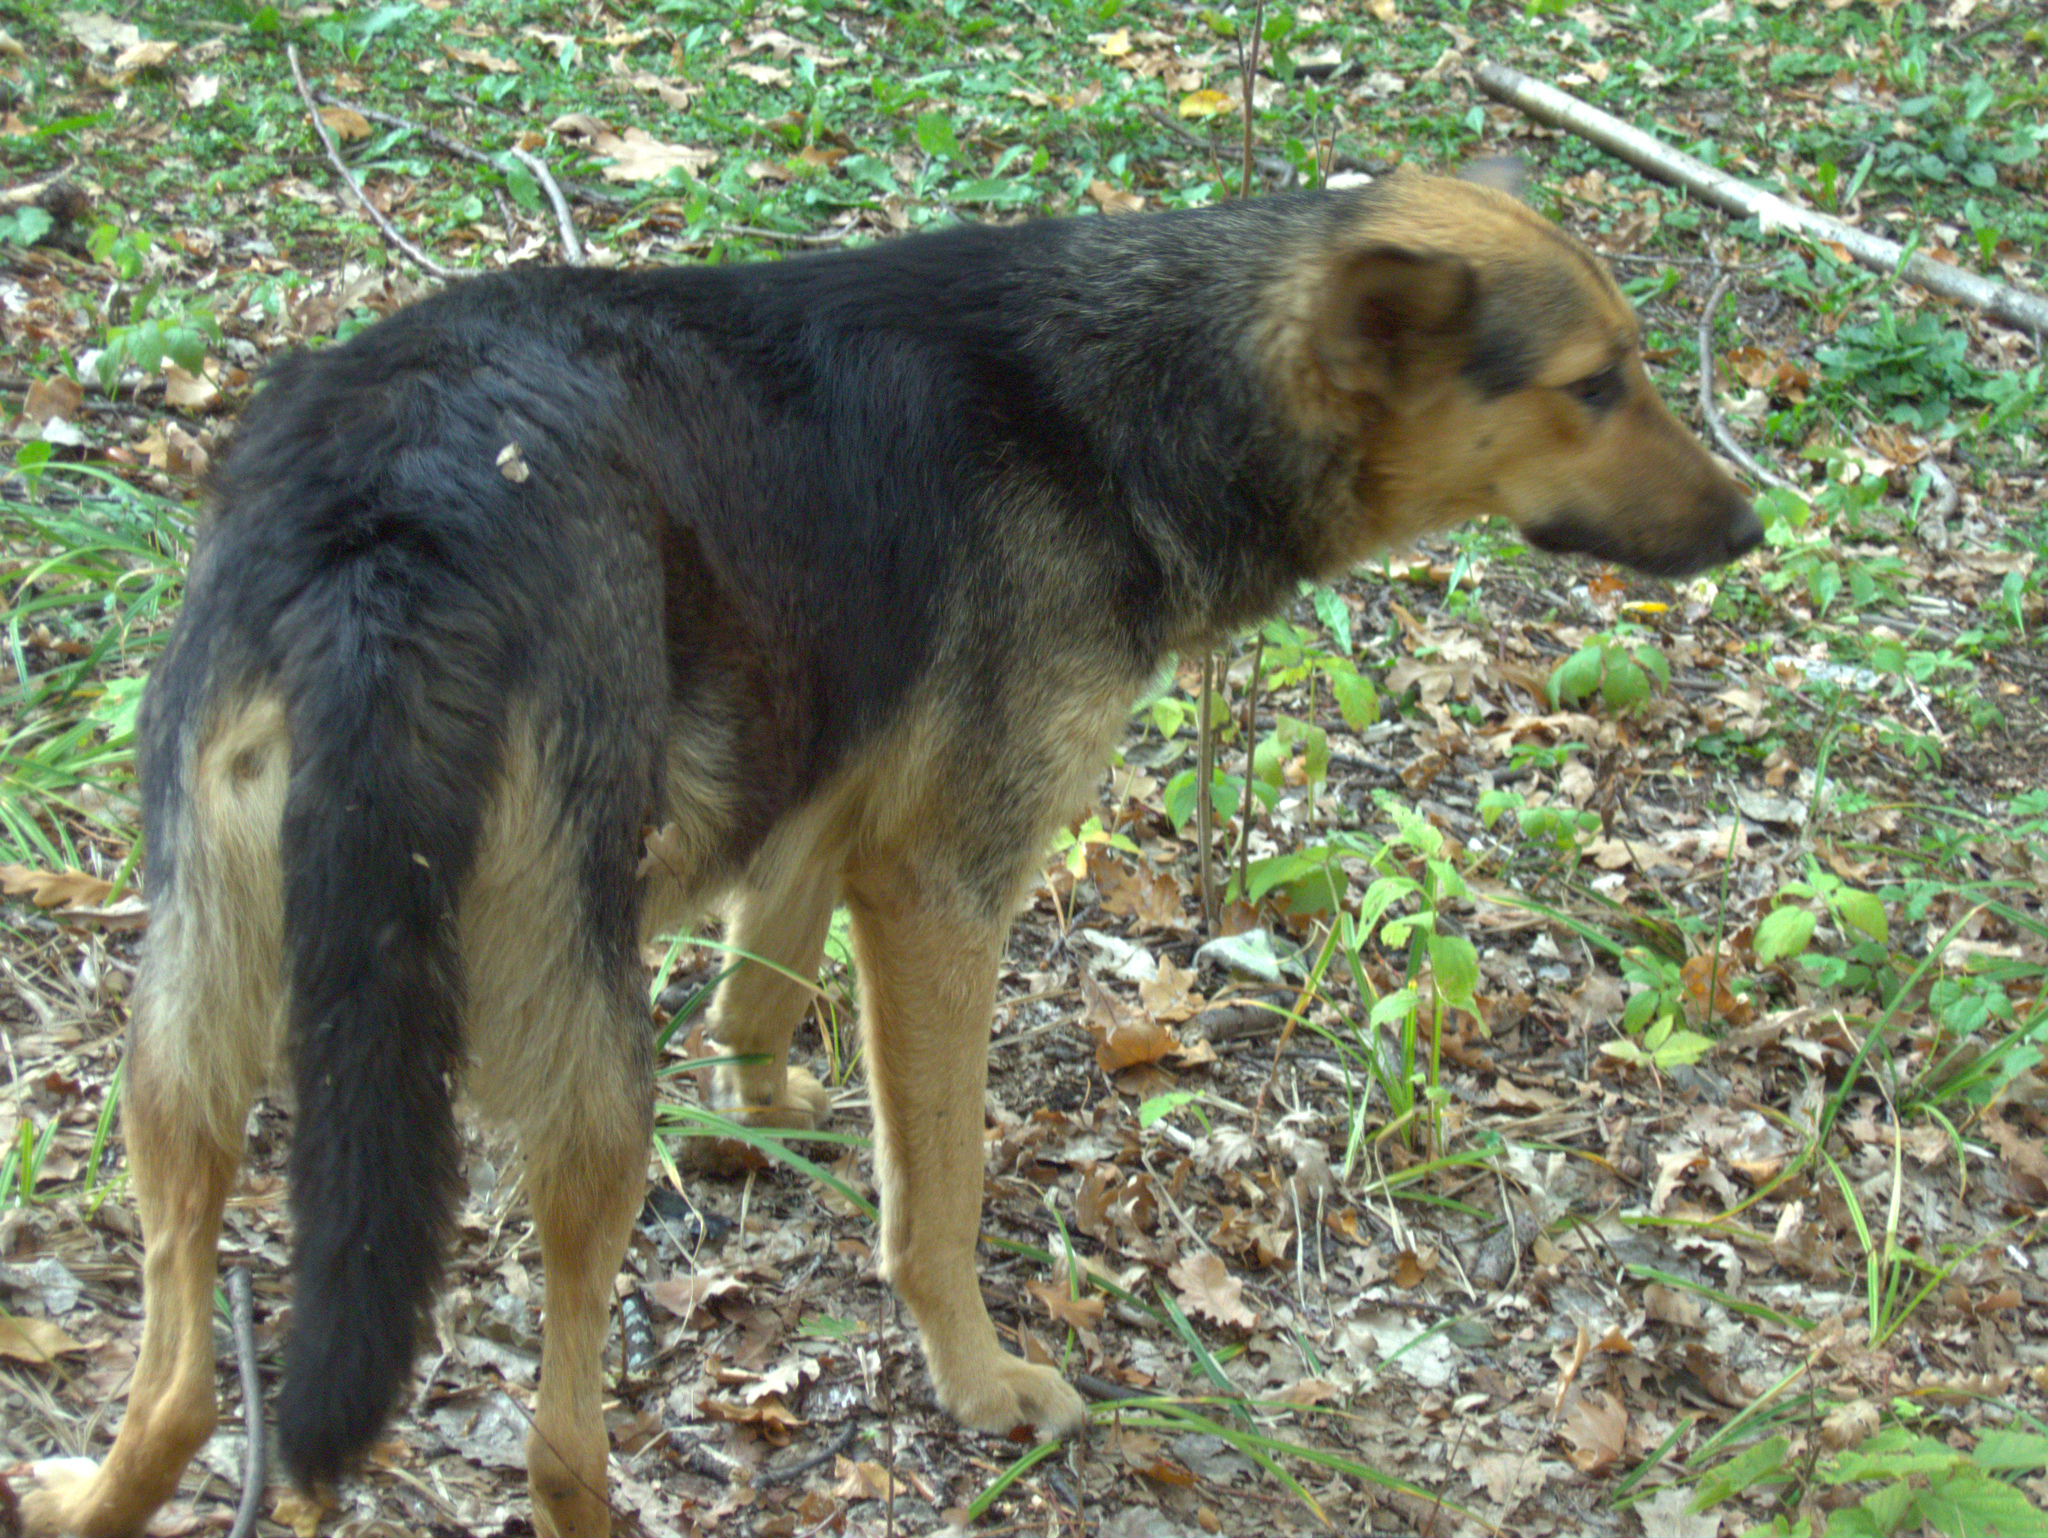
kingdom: Animalia
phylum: Chordata
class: Mammalia
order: Carnivora
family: Canidae
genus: Canis
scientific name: Canis lupus
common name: Gray wolf
